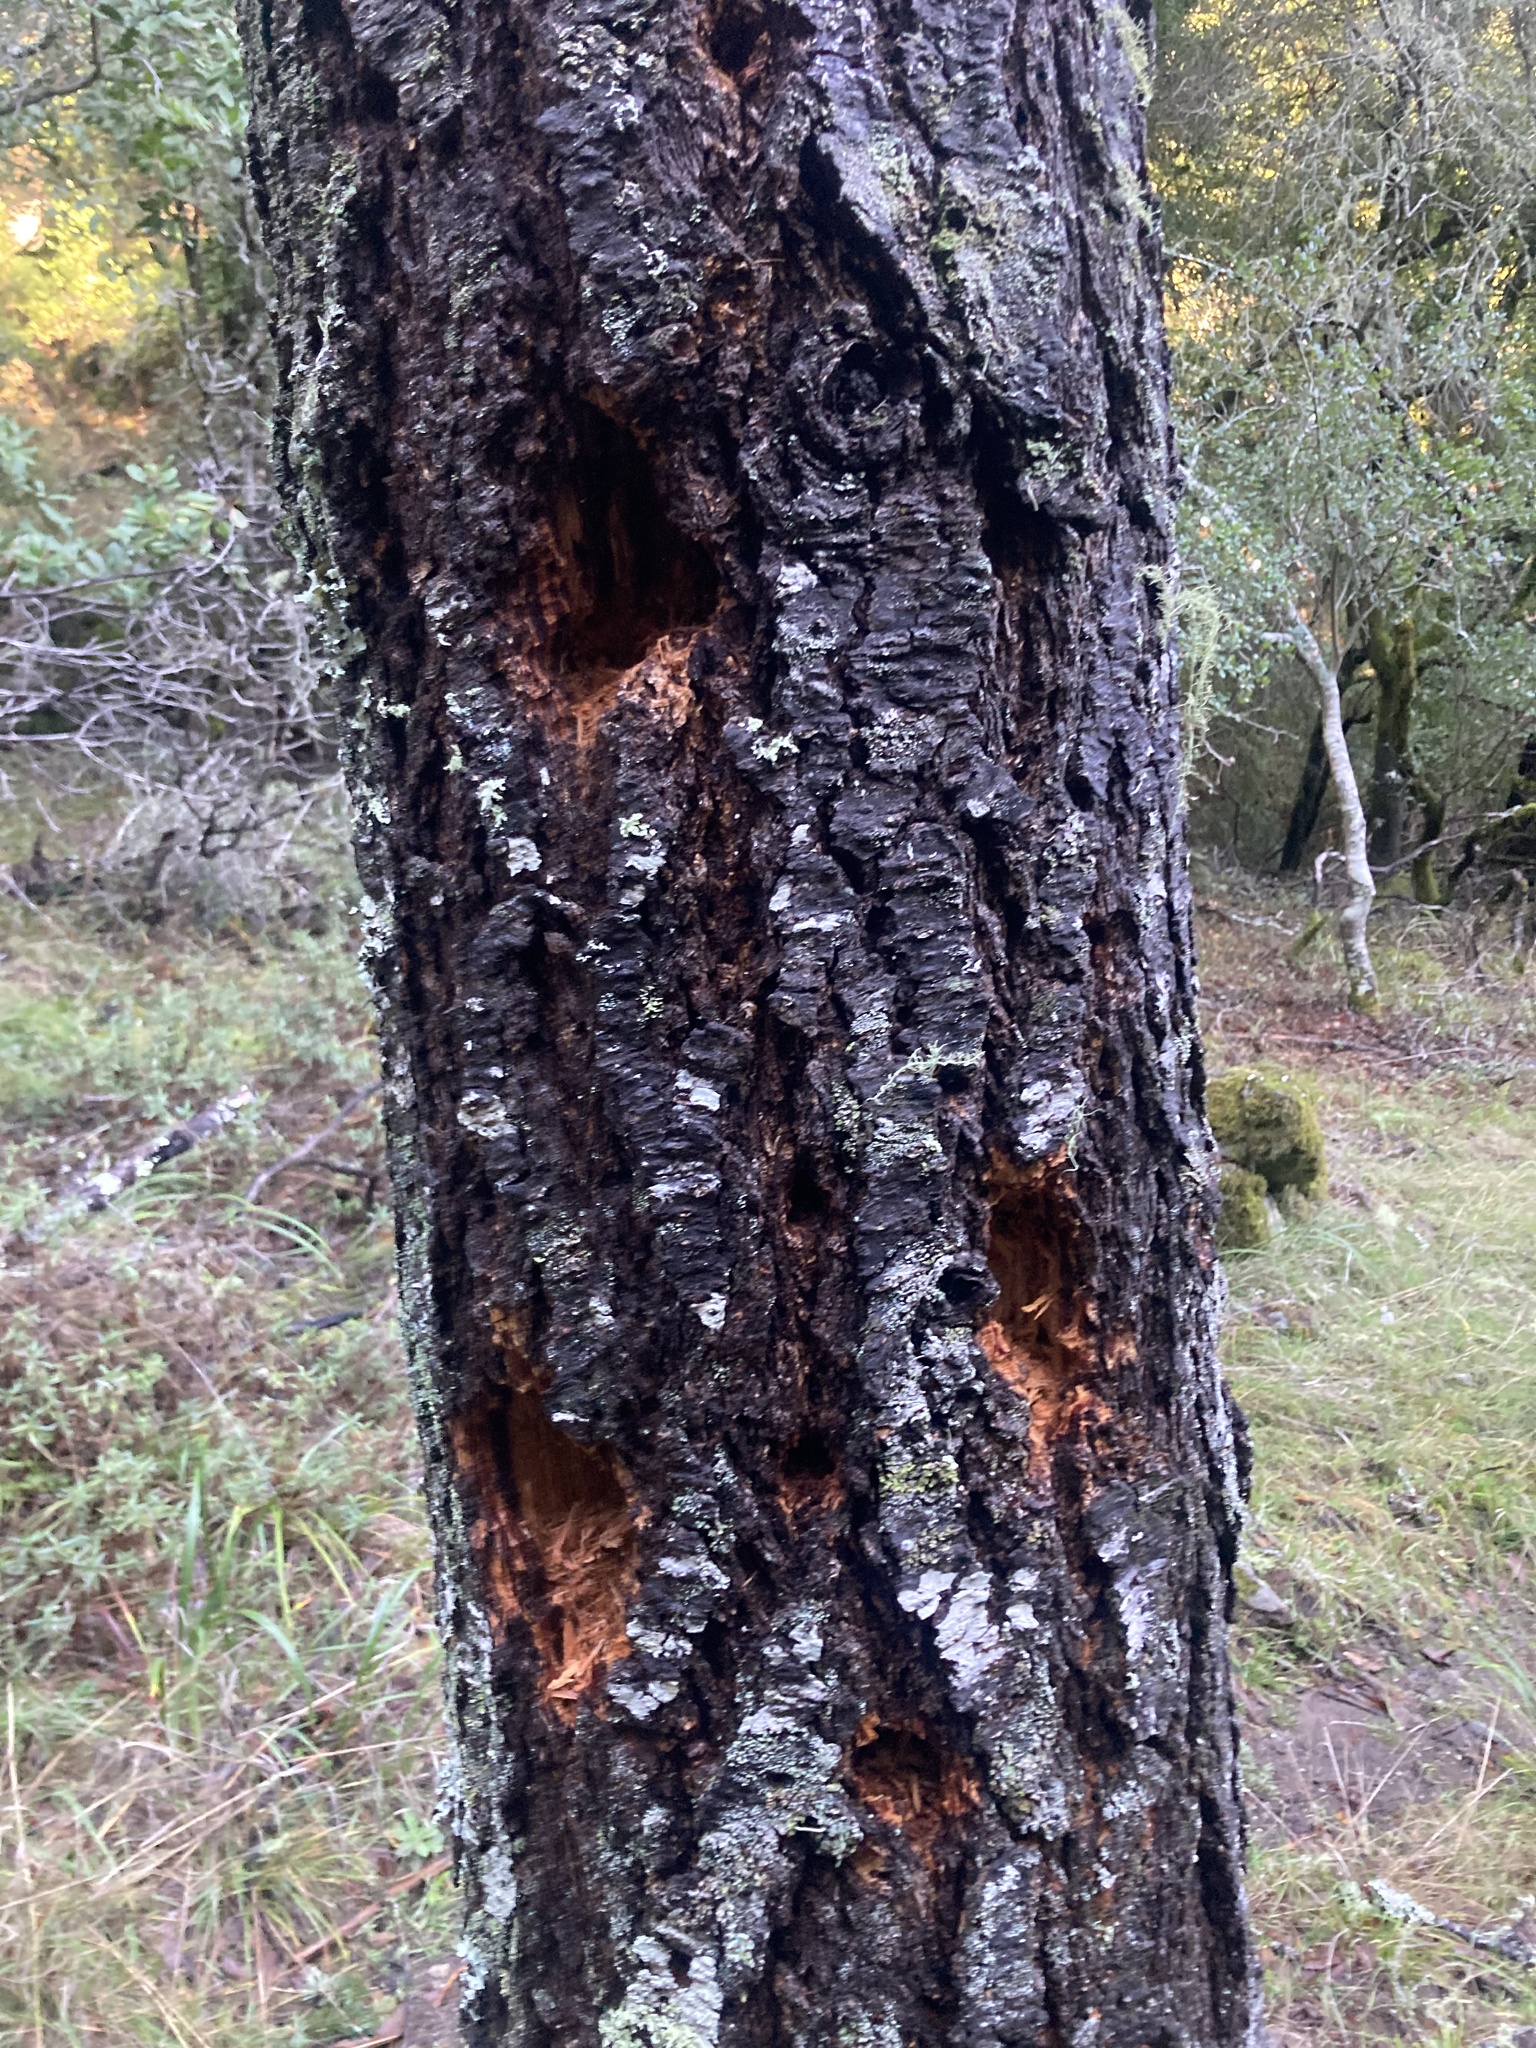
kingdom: Animalia
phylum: Chordata
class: Aves
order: Piciformes
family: Picidae
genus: Dryocopus
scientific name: Dryocopus pileatus
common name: Pileated woodpecker
